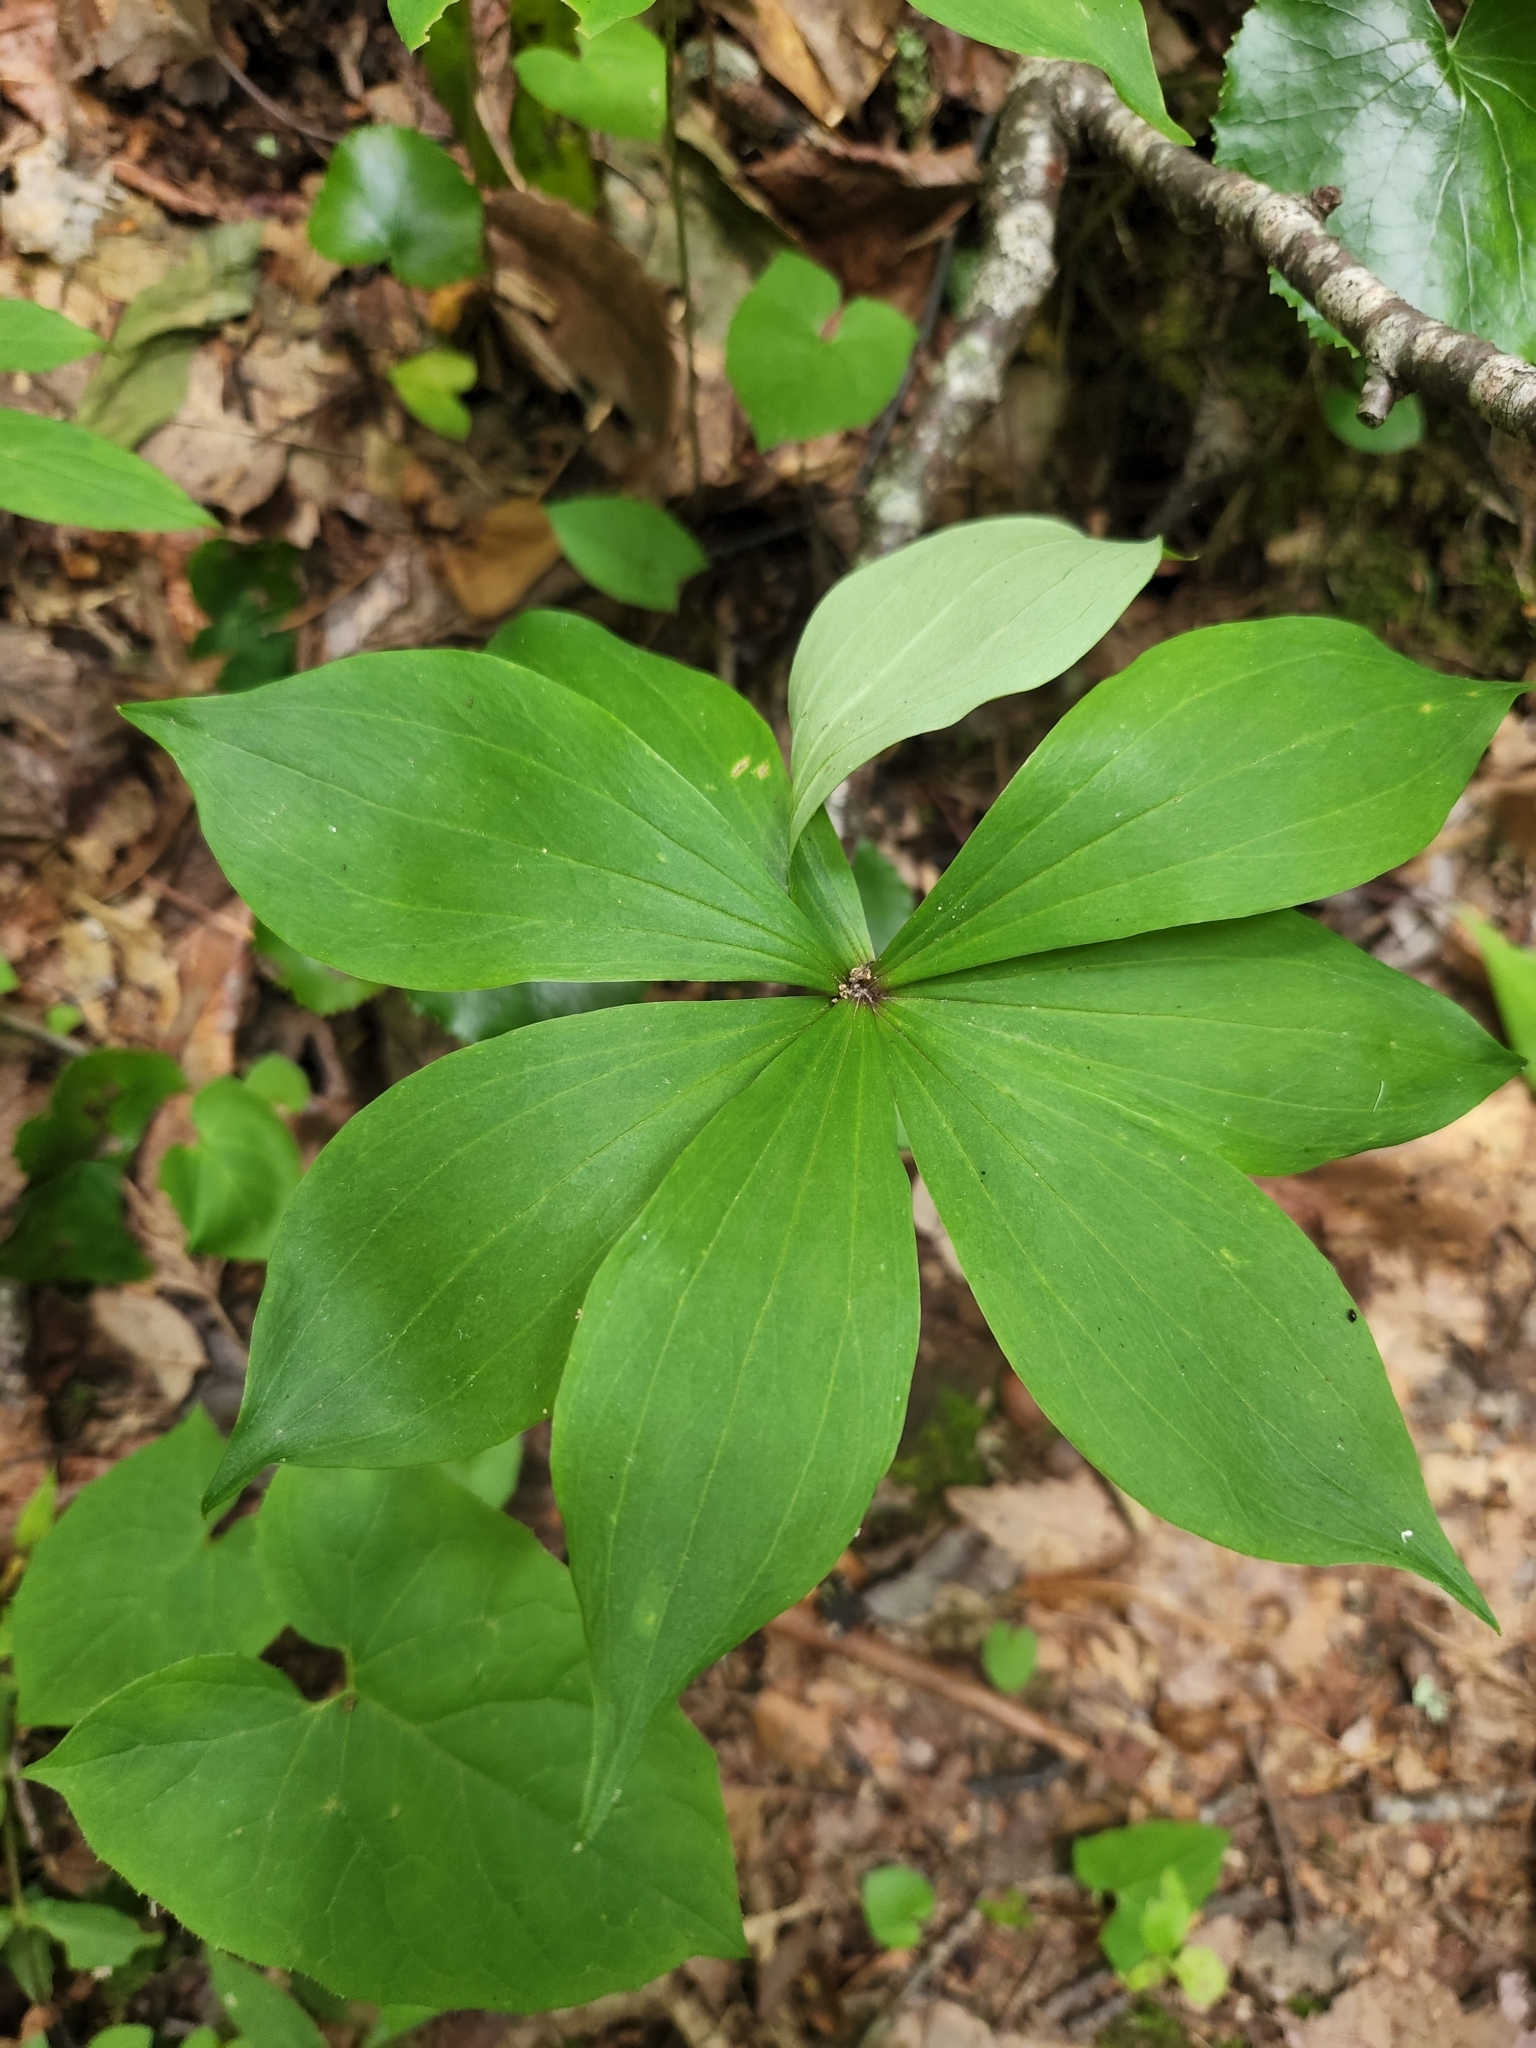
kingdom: Plantae
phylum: Tracheophyta
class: Liliopsida
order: Liliales
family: Liliaceae
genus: Medeola
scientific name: Medeola virginiana
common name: Indian cucumber-root
